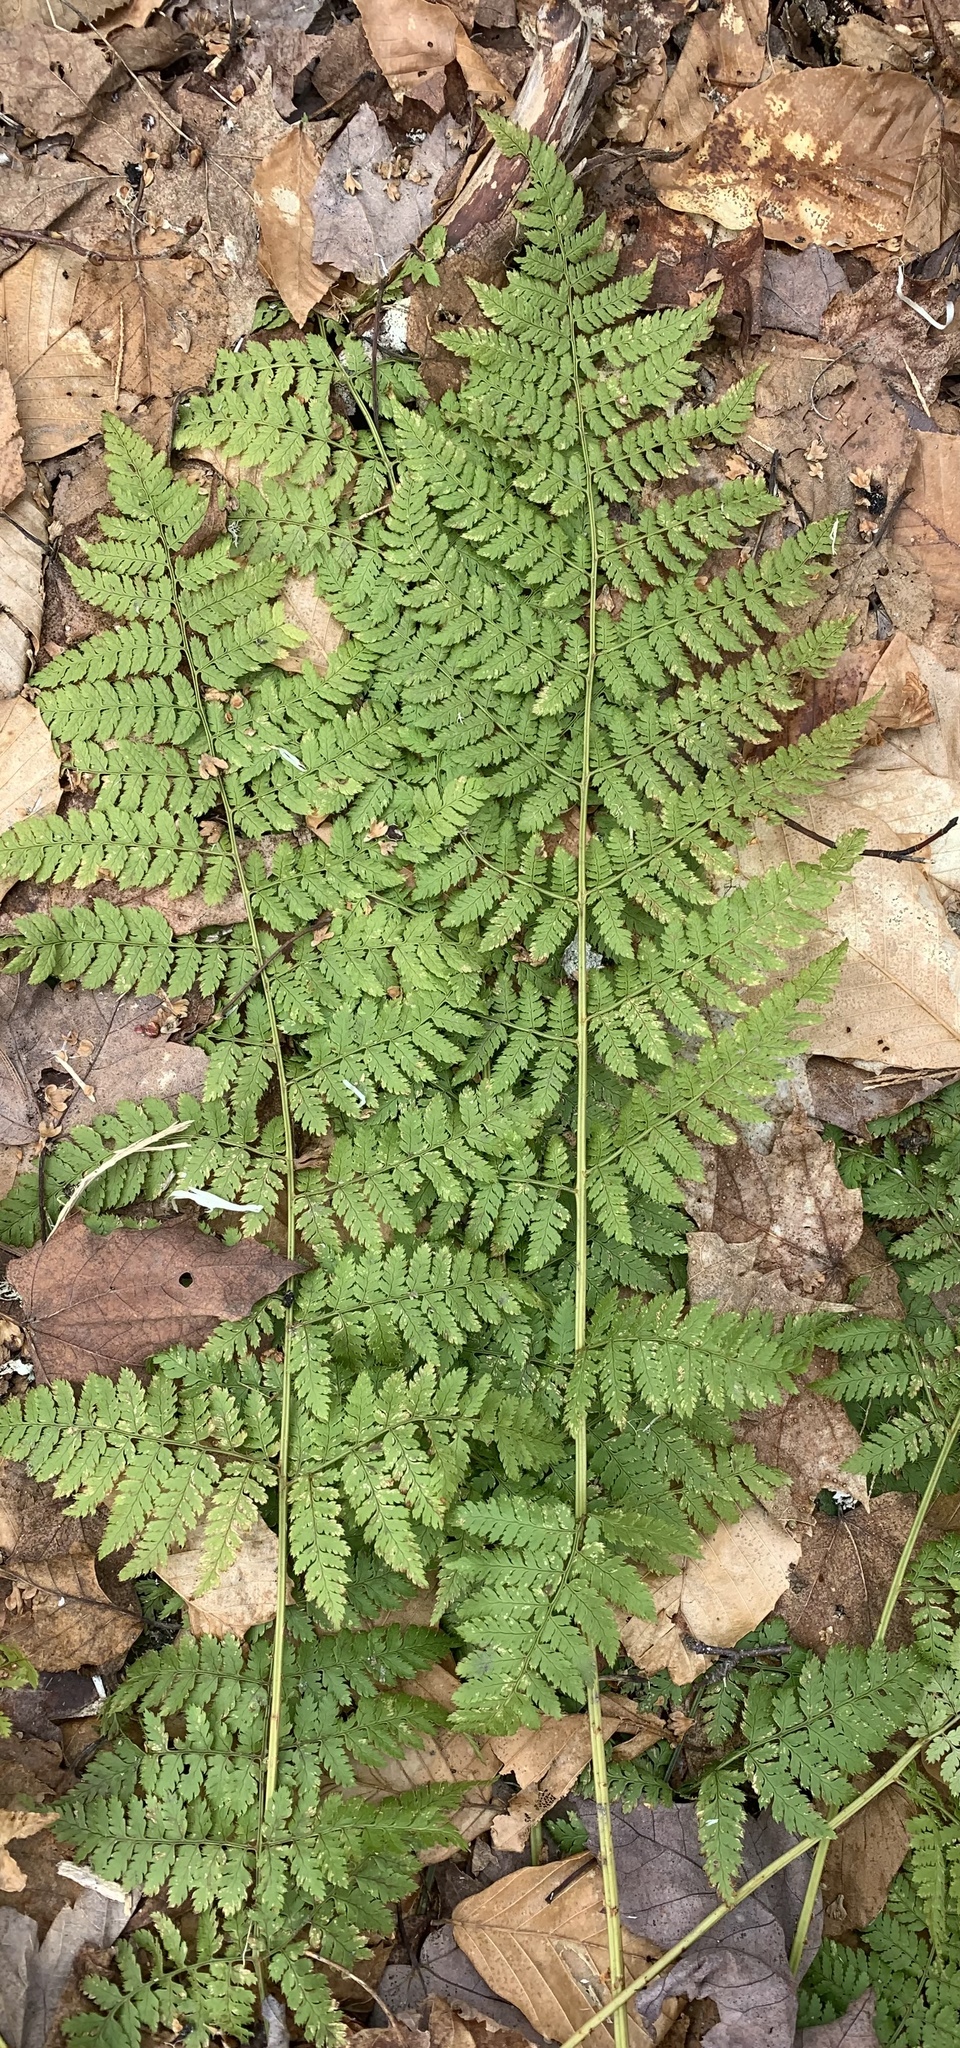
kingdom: Plantae
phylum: Tracheophyta
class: Polypodiopsida
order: Polypodiales
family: Dryopteridaceae
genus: Dryopteris
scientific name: Dryopteris intermedia
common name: Evergreen wood fern
